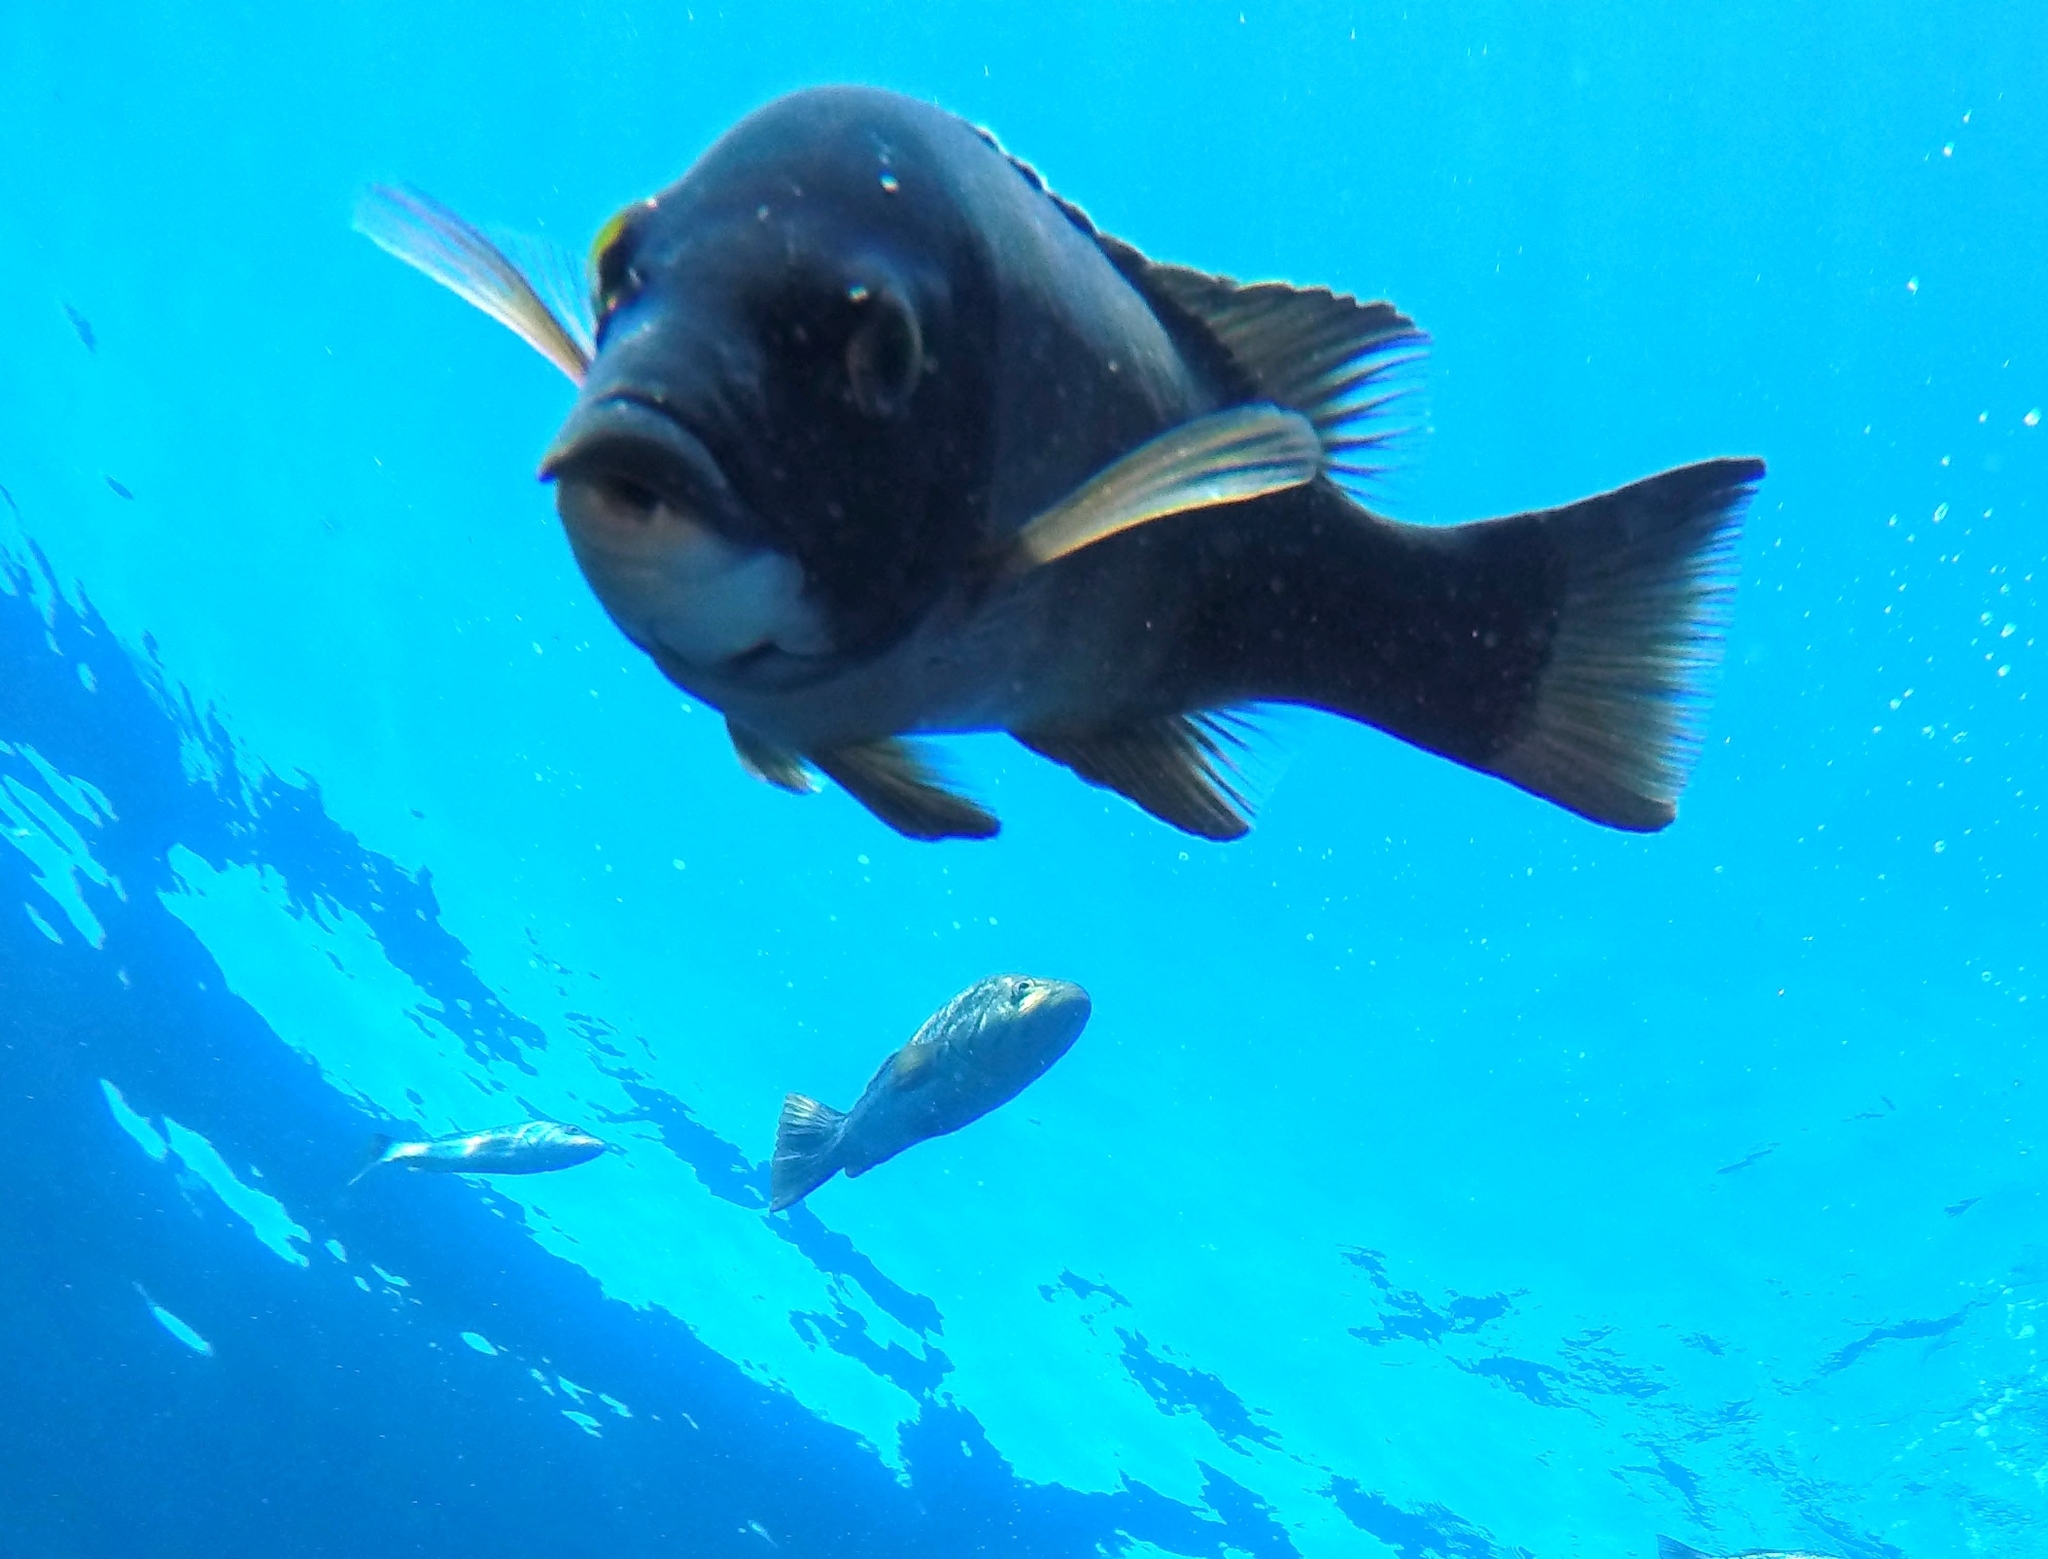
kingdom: Animalia
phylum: Chordata
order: Perciformes
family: Labridae
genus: Semicossyphus
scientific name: Semicossyphus pulcher
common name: California sheephead
